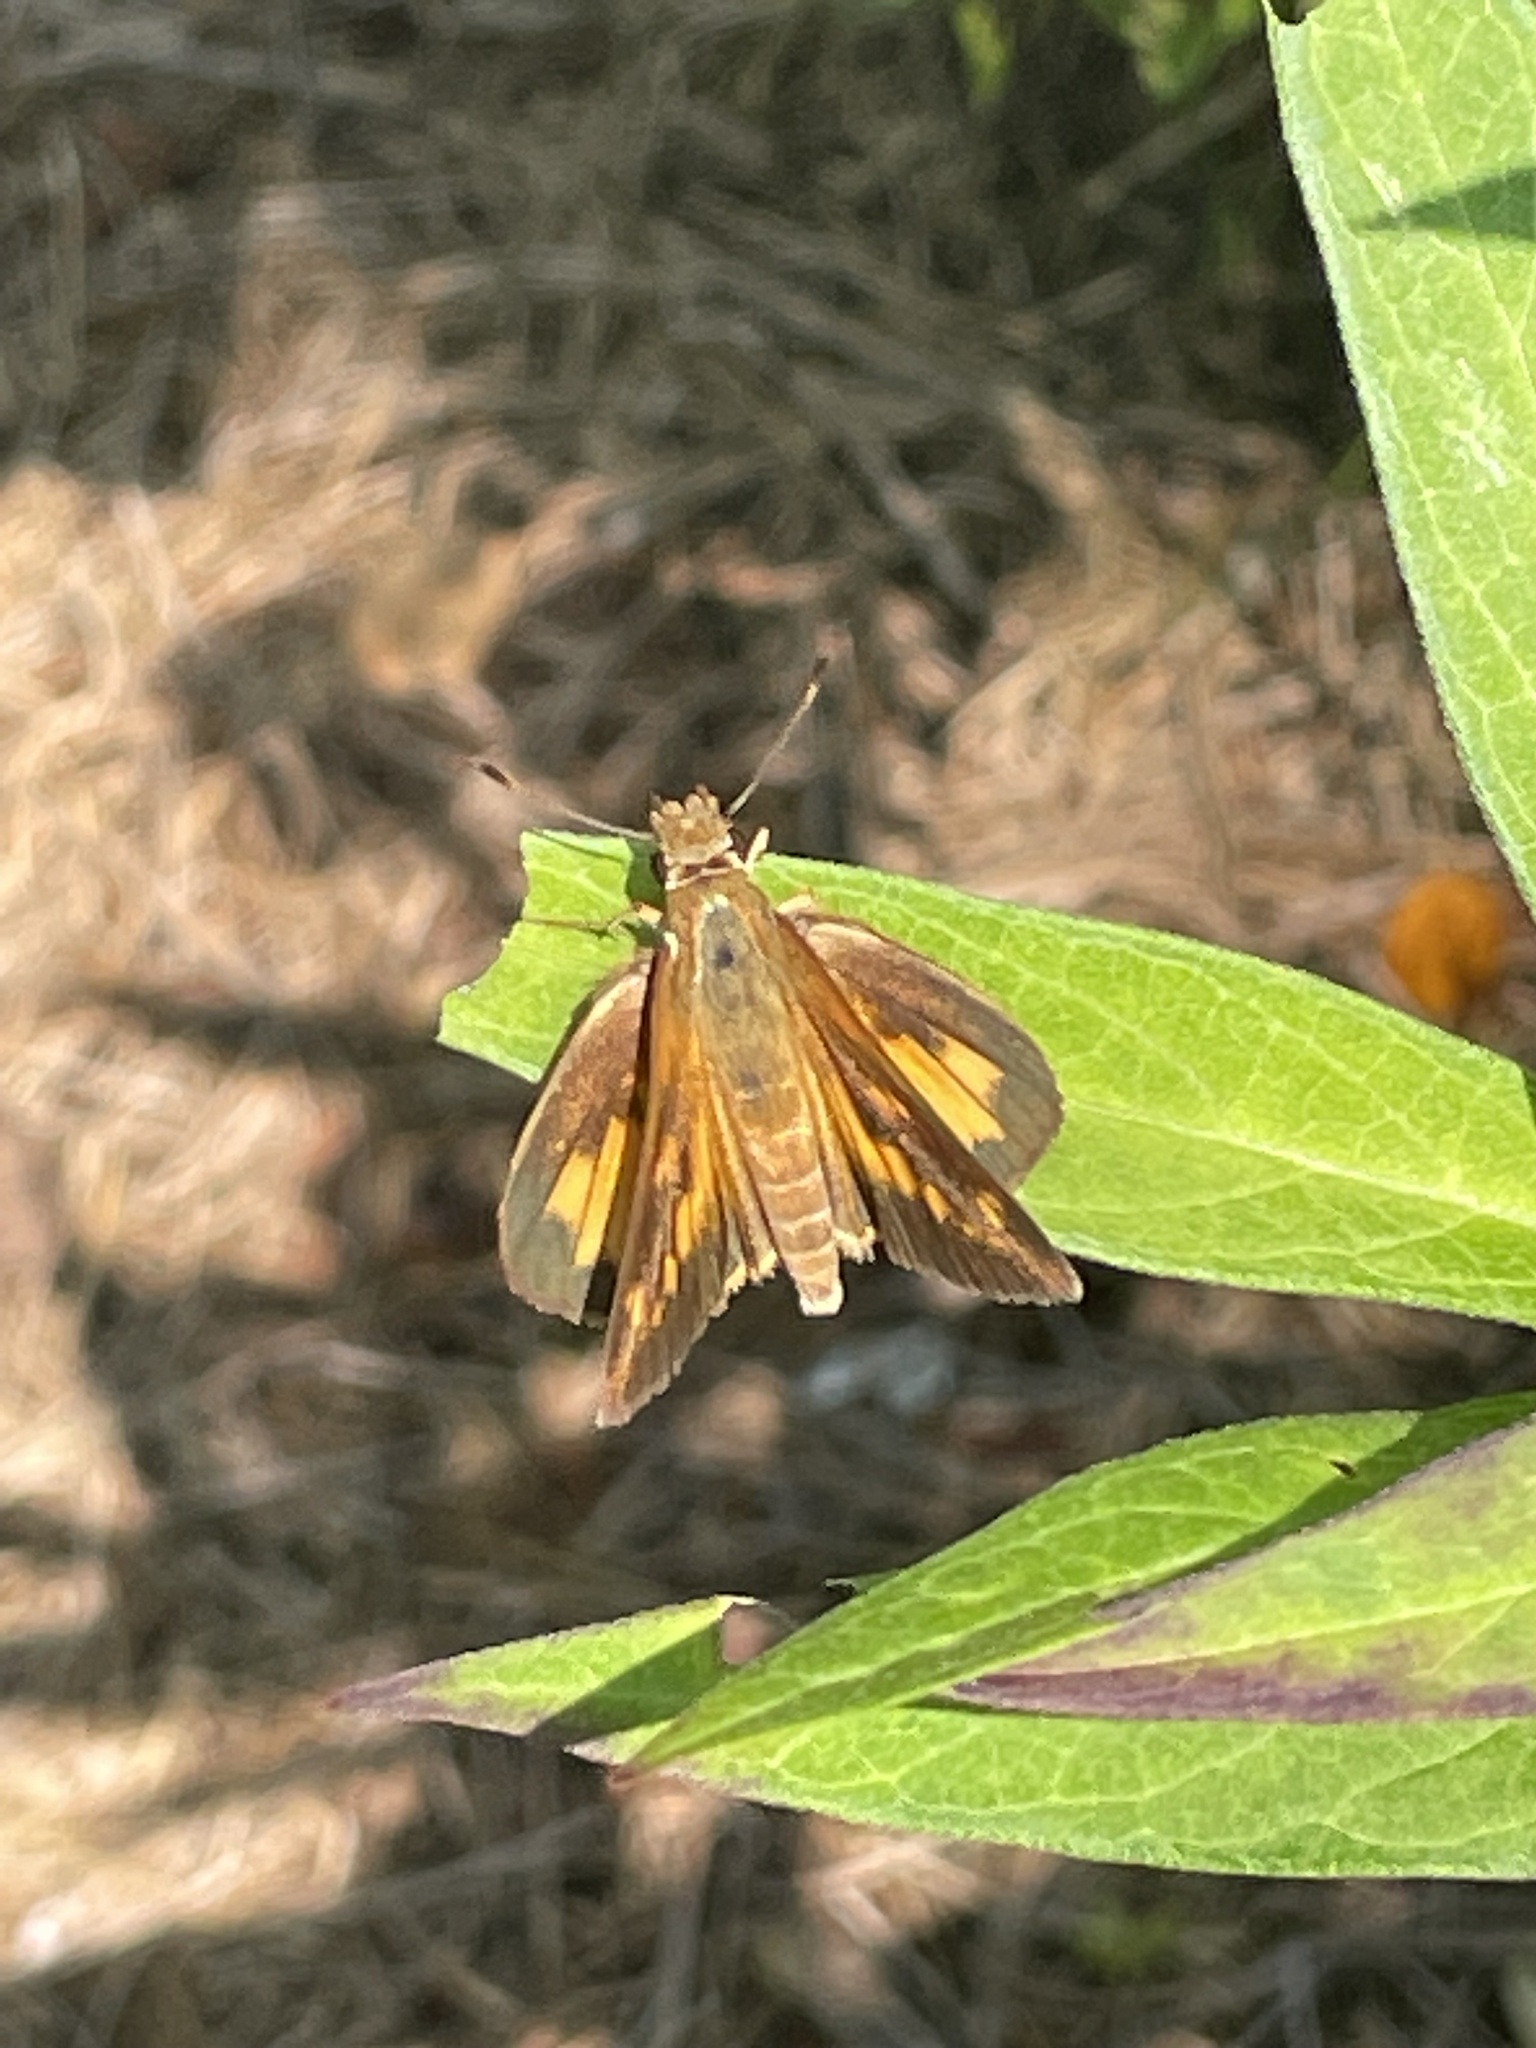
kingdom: Animalia
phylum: Arthropoda
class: Insecta
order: Lepidoptera
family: Hesperiidae
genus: Poanes
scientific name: Poanes viator
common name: Broad-winged skipper
